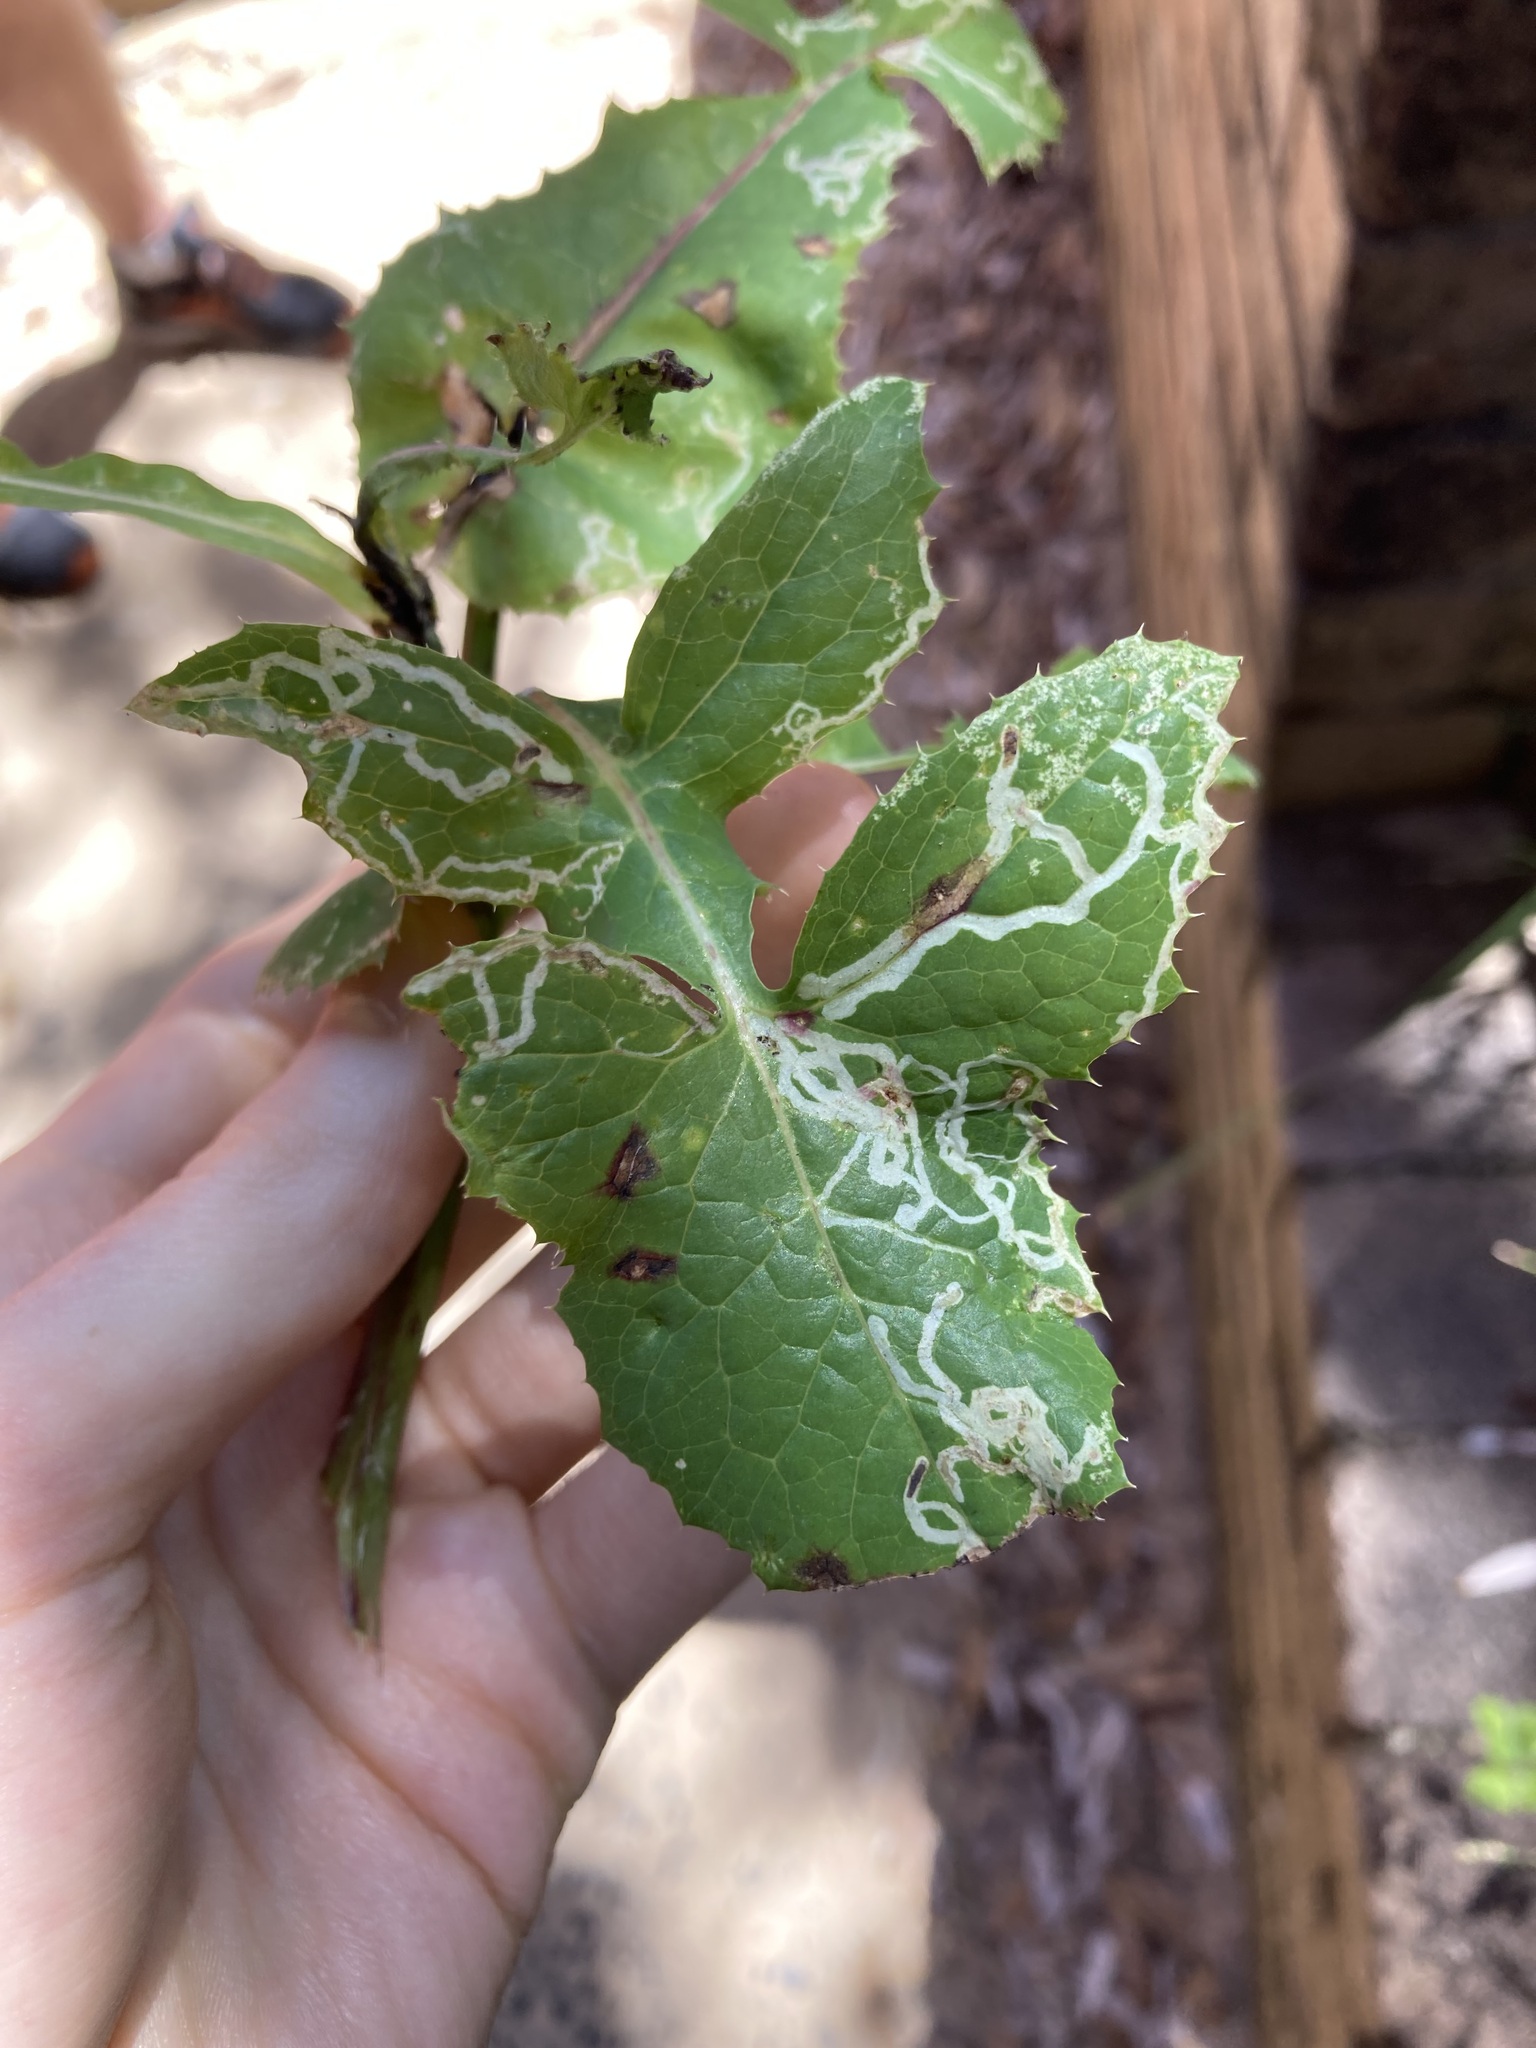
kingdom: Animalia
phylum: Arthropoda
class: Insecta
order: Diptera
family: Agromyzidae
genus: Phytomyza
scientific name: Phytomyza syngenesiae
